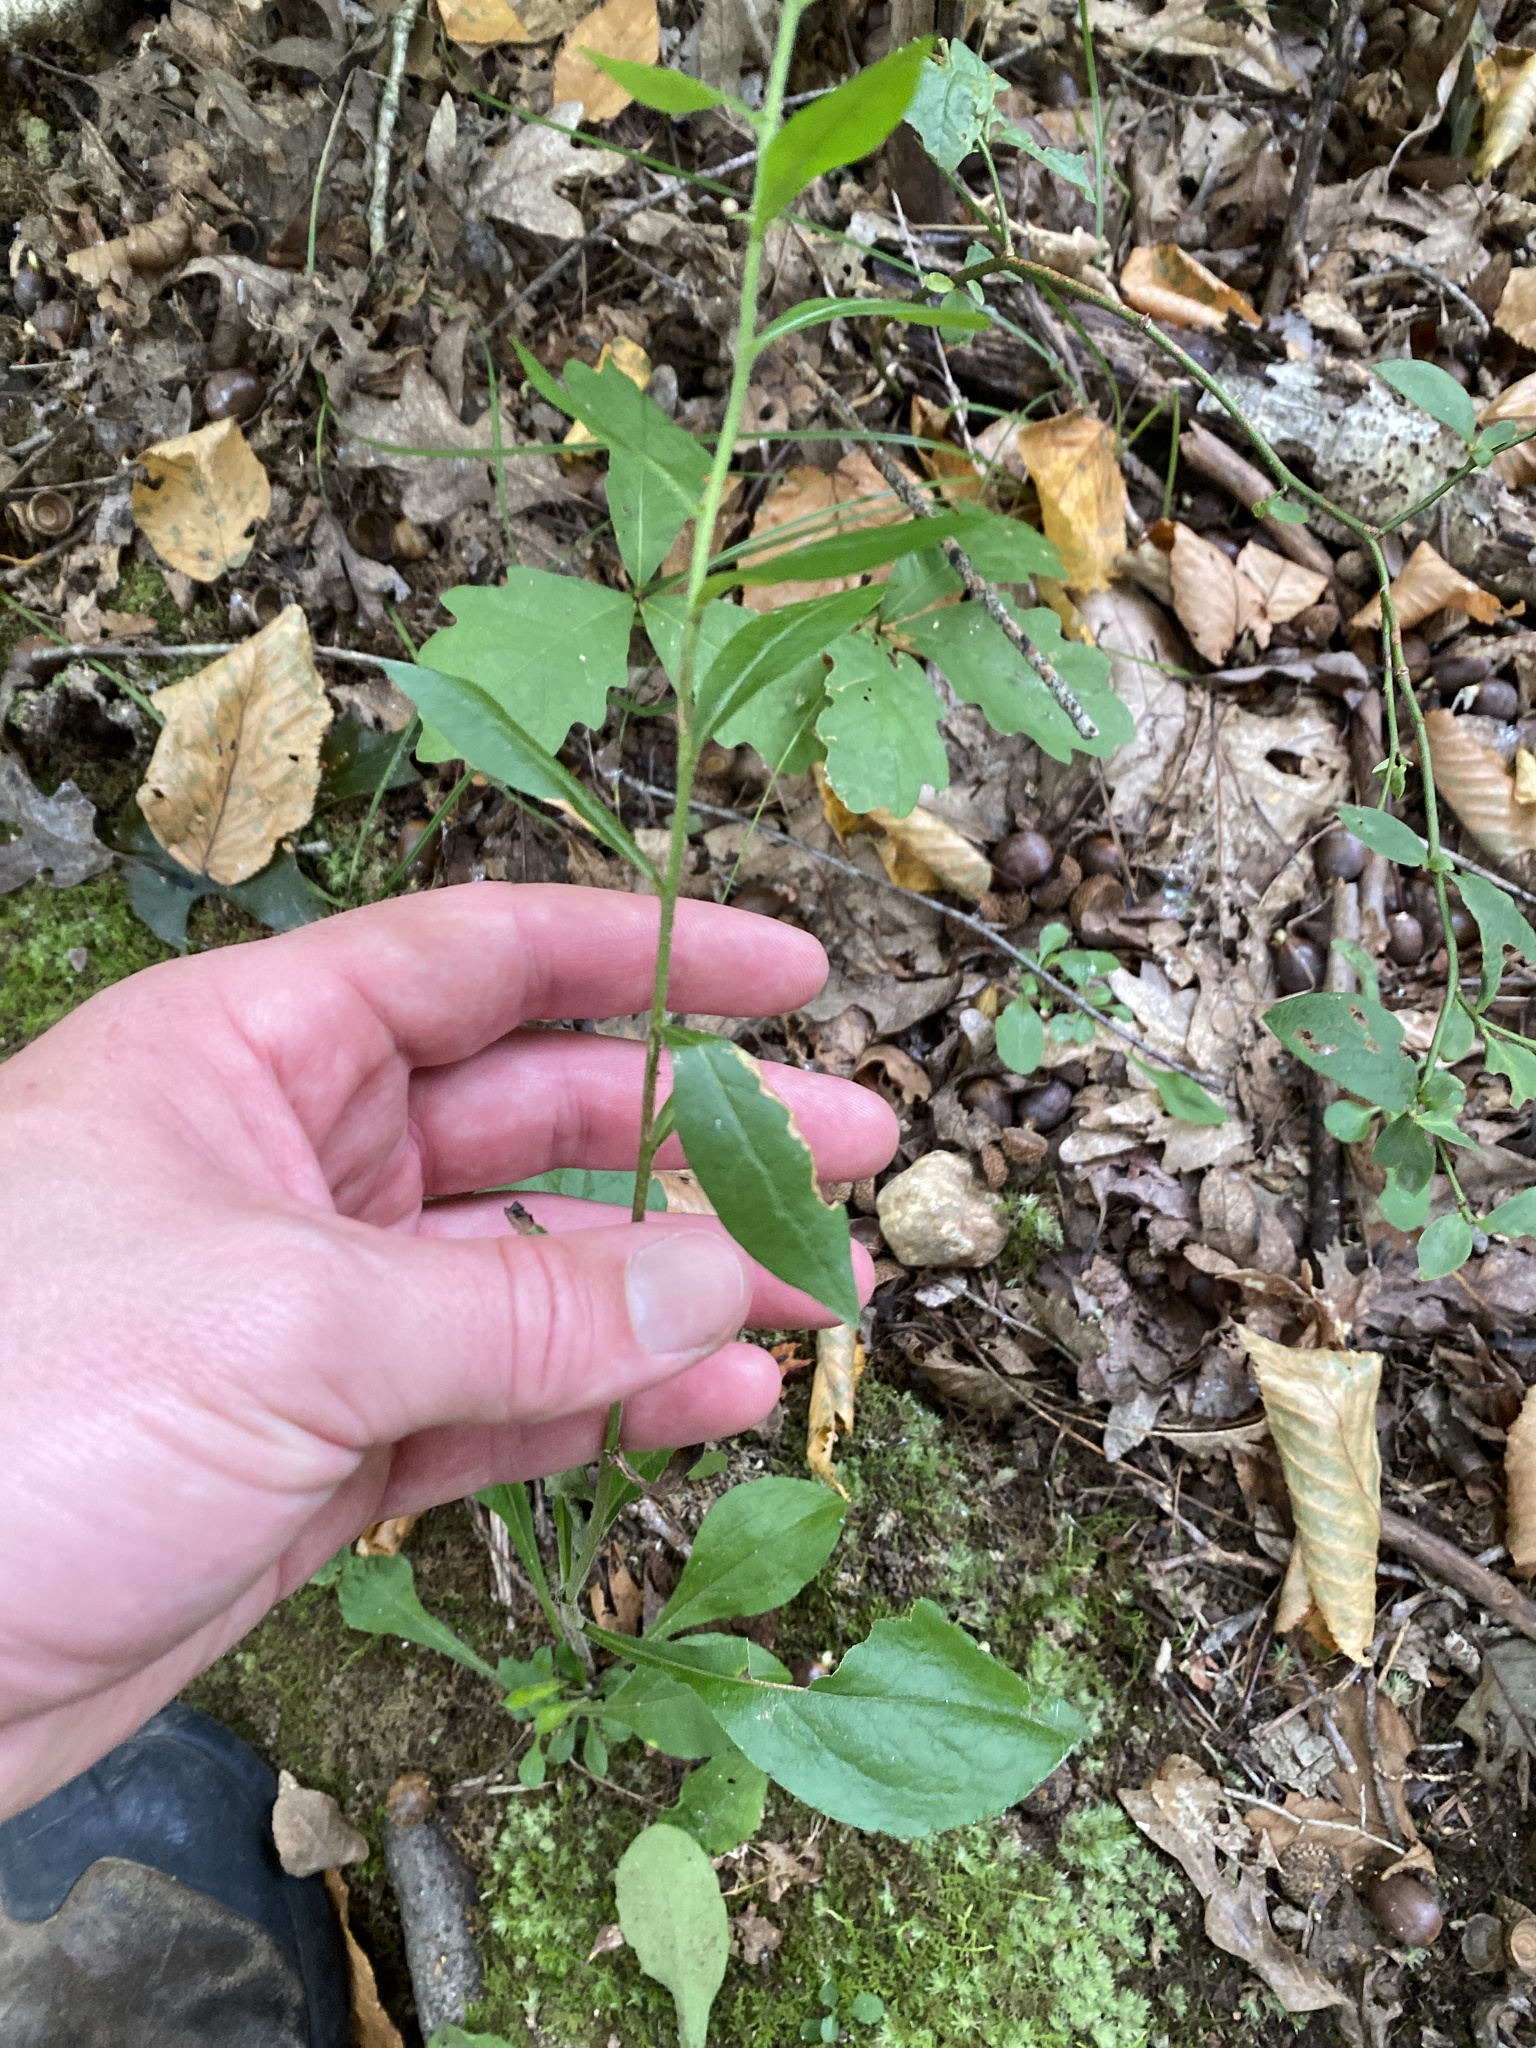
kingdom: Plantae
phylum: Tracheophyta
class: Magnoliopsida
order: Asterales
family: Asteraceae
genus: Solidago
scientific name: Solidago bicolor
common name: Silverrod
